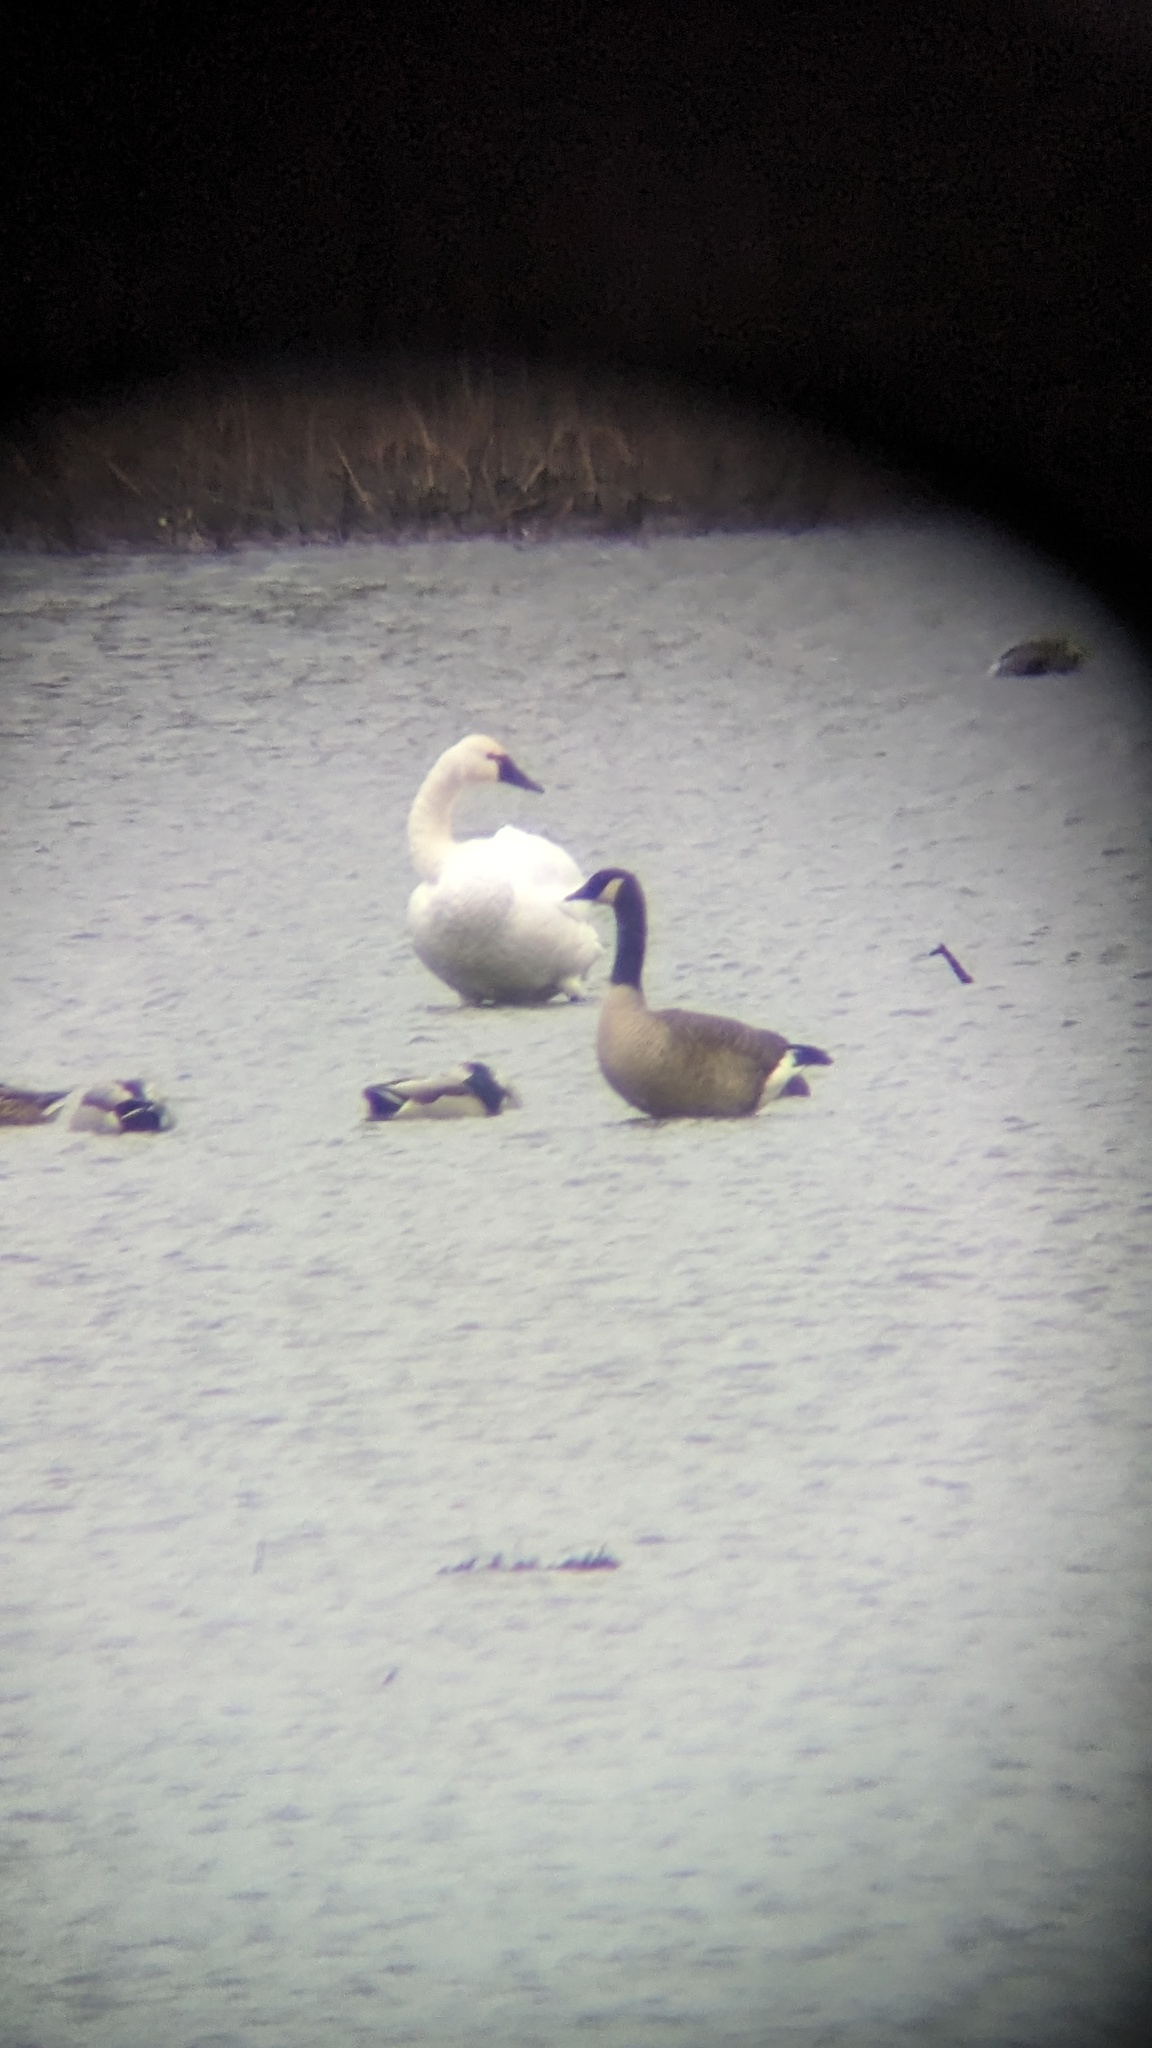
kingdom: Animalia
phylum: Chordata
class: Aves
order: Anseriformes
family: Anatidae
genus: Cygnus
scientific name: Cygnus columbianus
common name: Tundra swan
